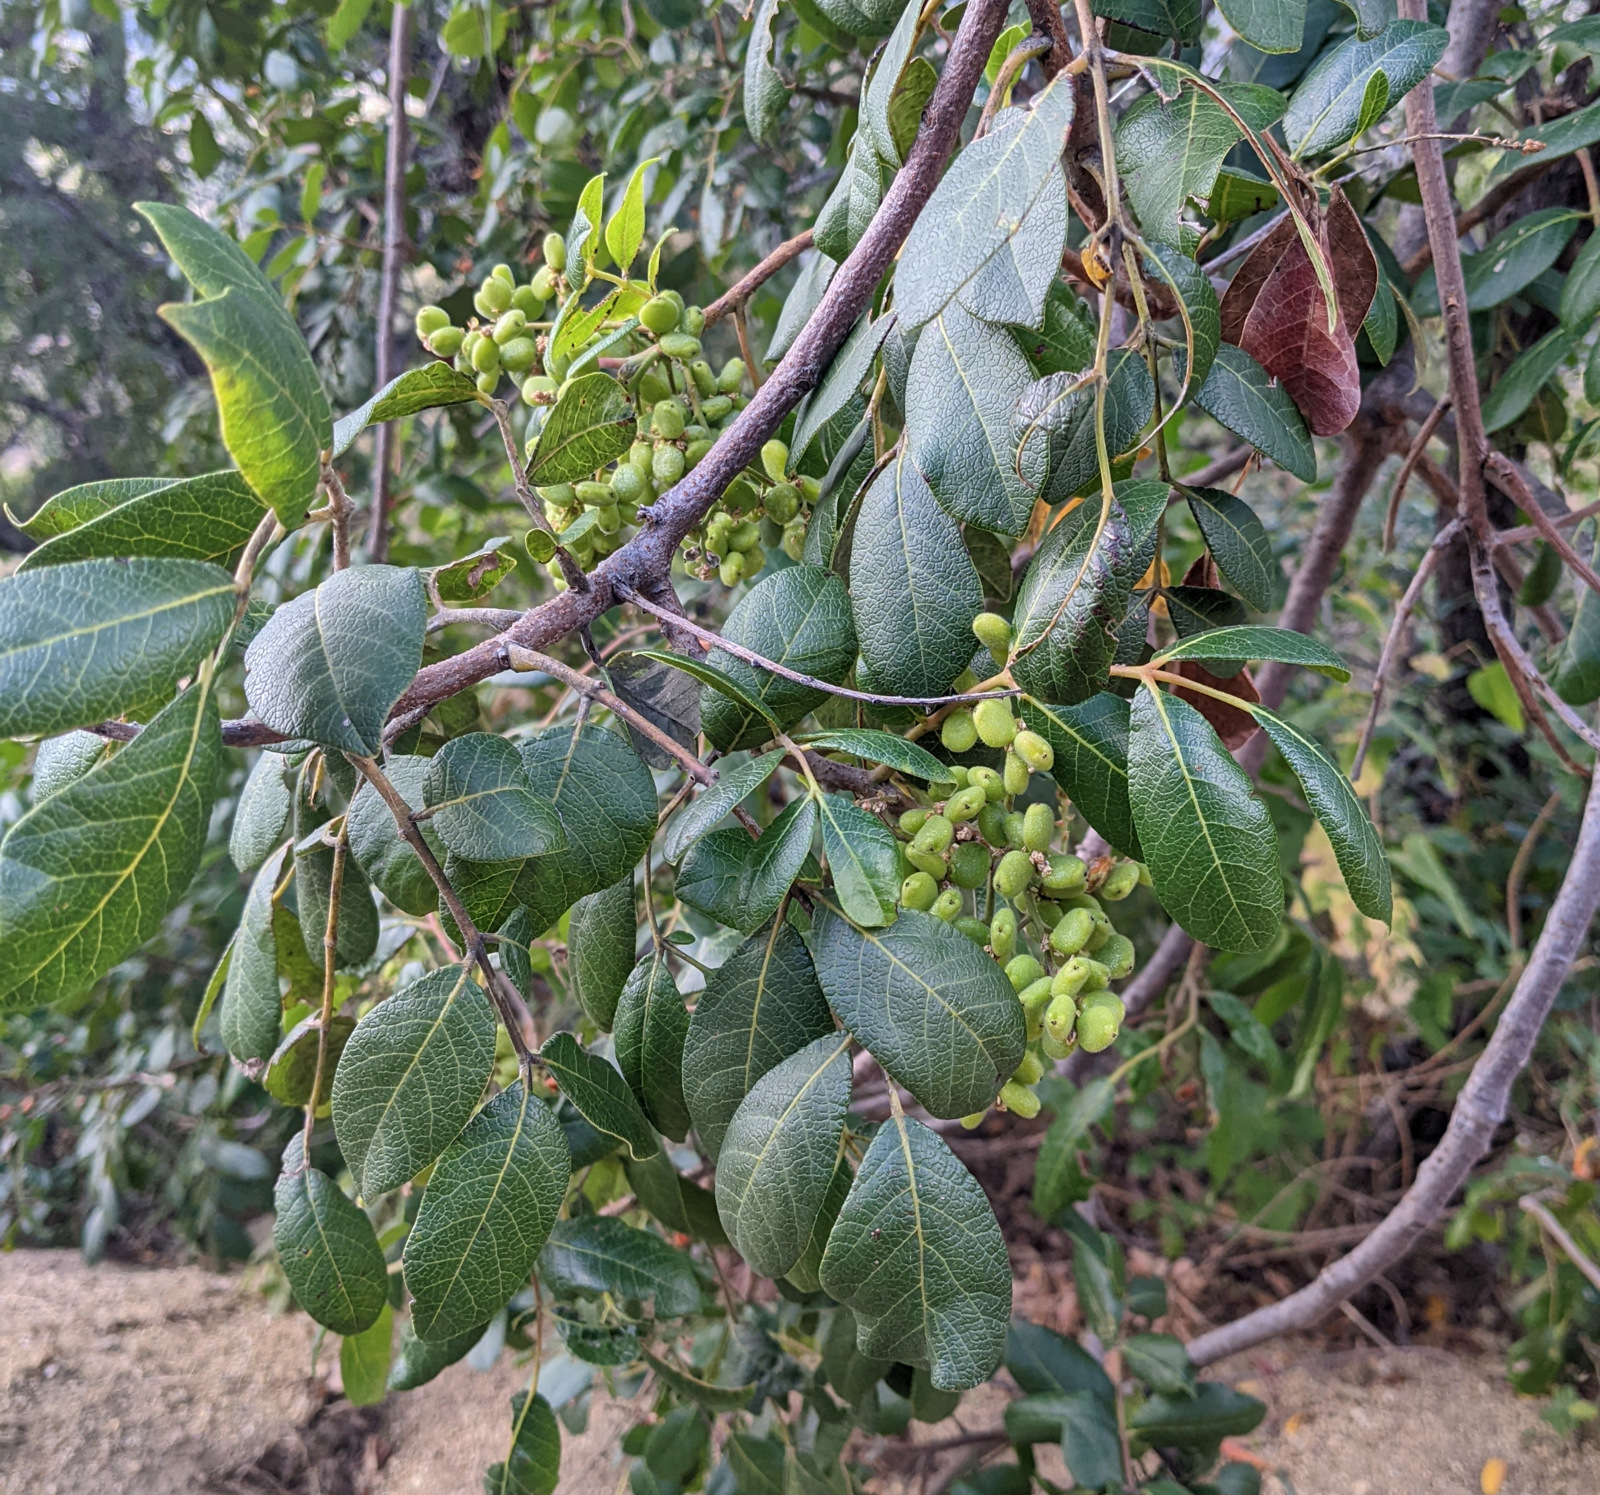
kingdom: Plantae
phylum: Tracheophyta
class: Magnoliopsida
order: Sapindales
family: Anacardiaceae
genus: Rhus
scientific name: Rhus tepetate
